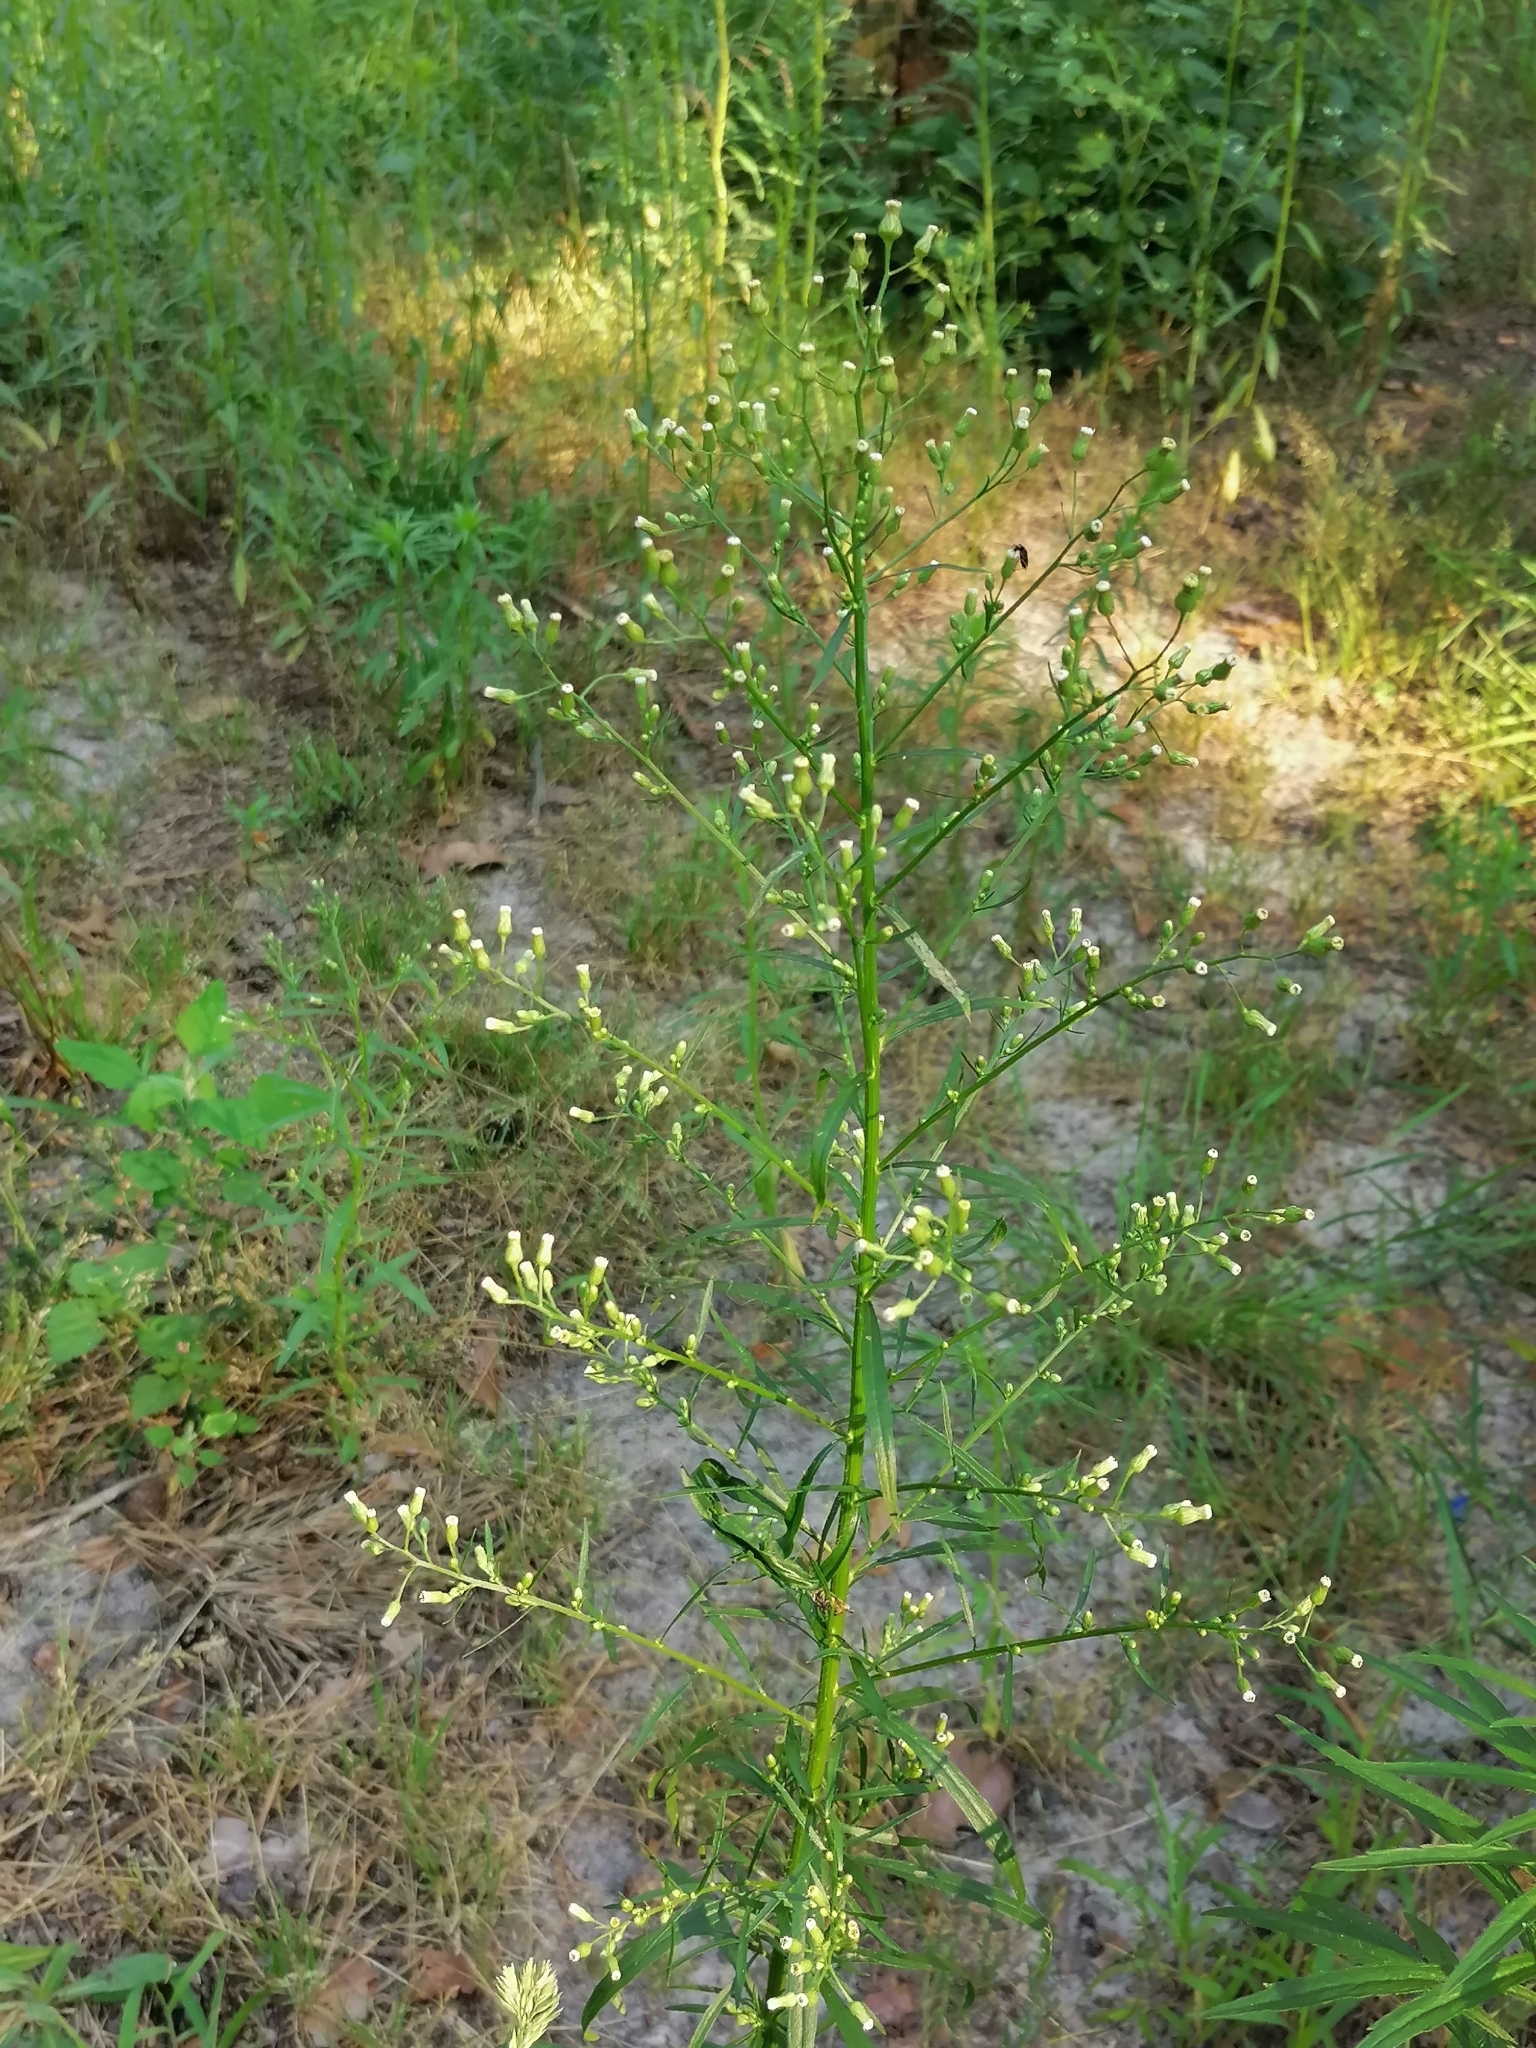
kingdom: Plantae
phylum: Tracheophyta
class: Magnoliopsida
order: Asterales
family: Asteraceae
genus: Erigeron
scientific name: Erigeron canadensis
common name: Canadian fleabane
